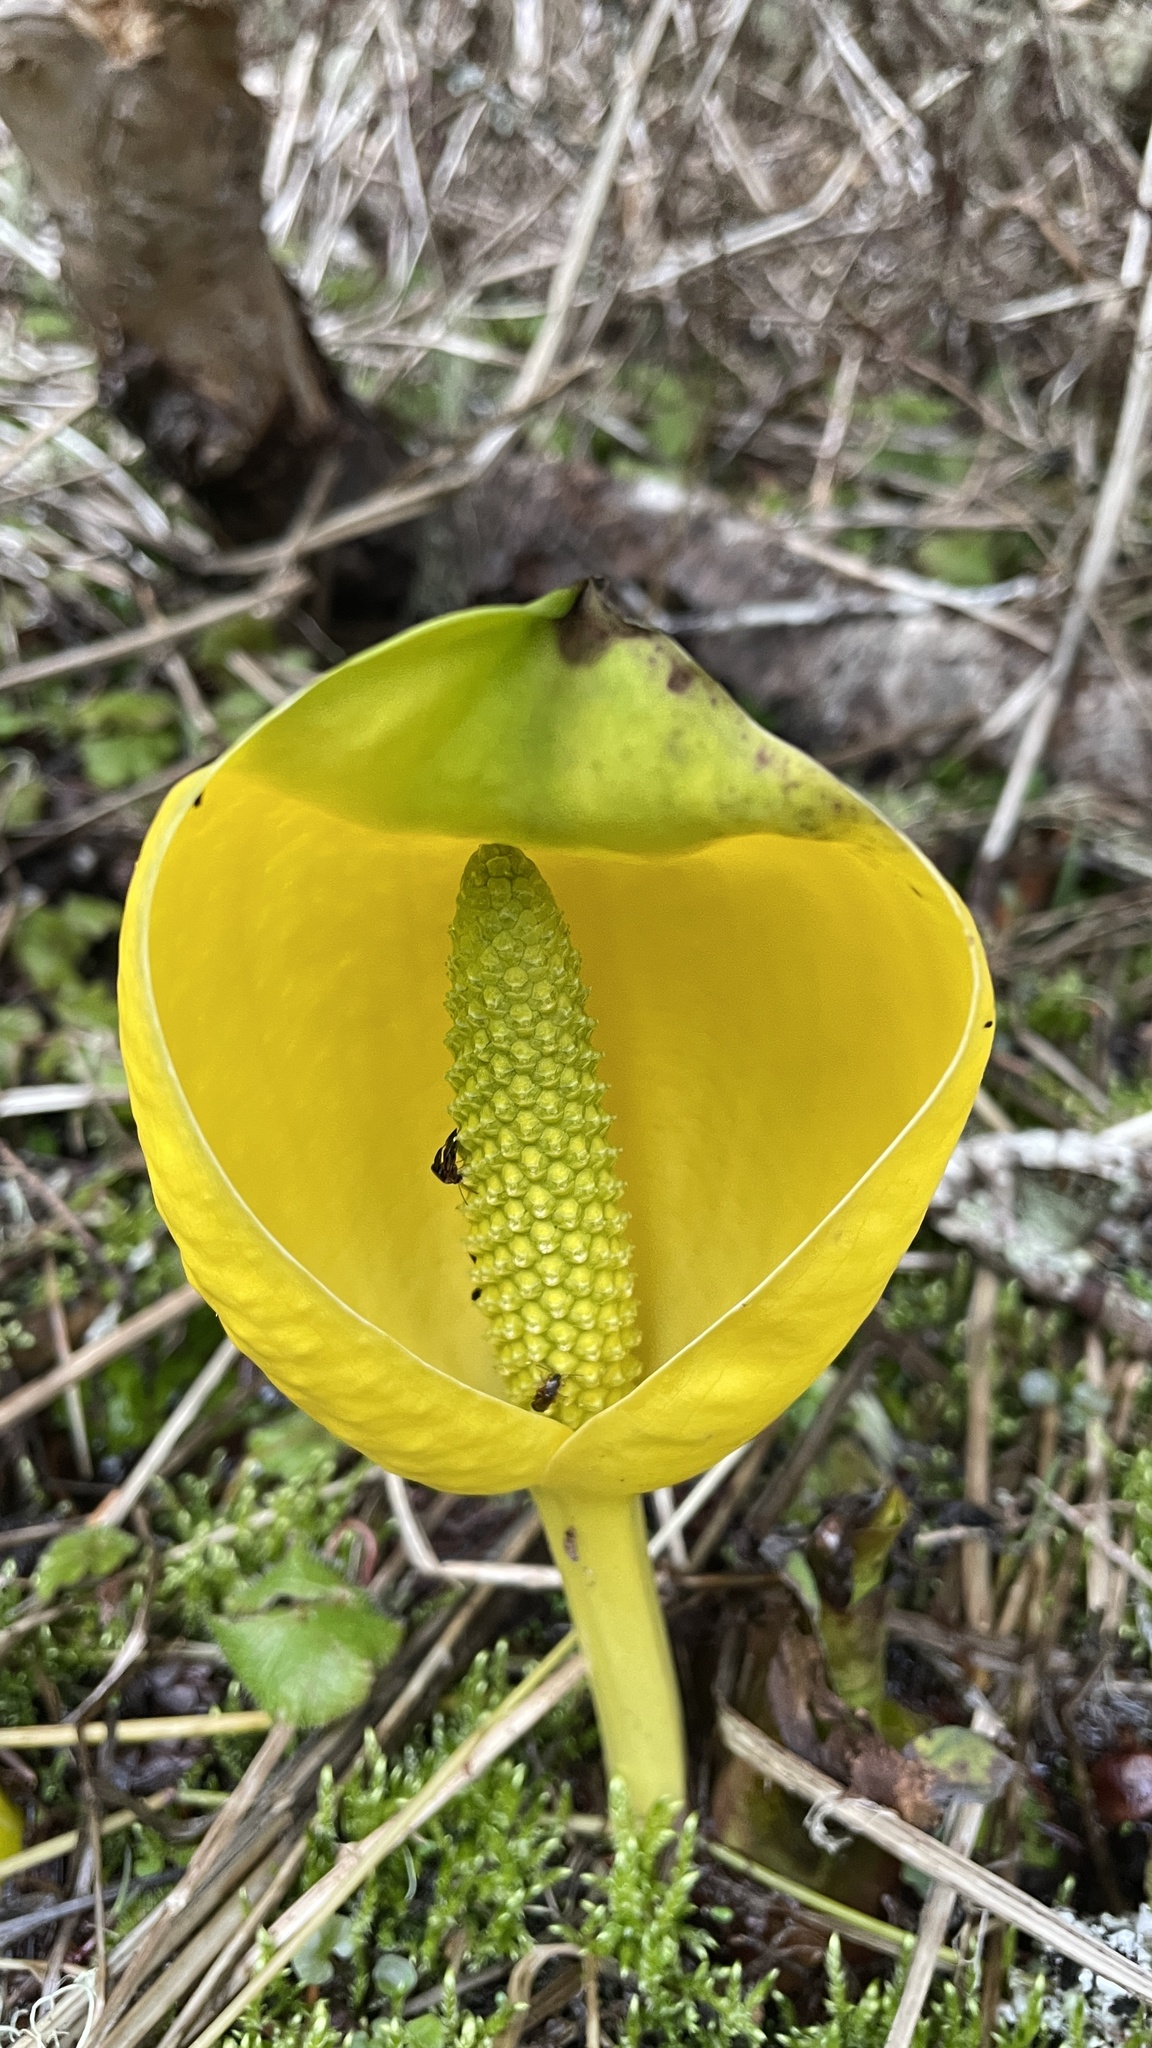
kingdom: Plantae
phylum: Tracheophyta
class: Liliopsida
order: Alismatales
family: Araceae
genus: Lysichiton
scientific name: Lysichiton americanus
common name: American skunk cabbage
